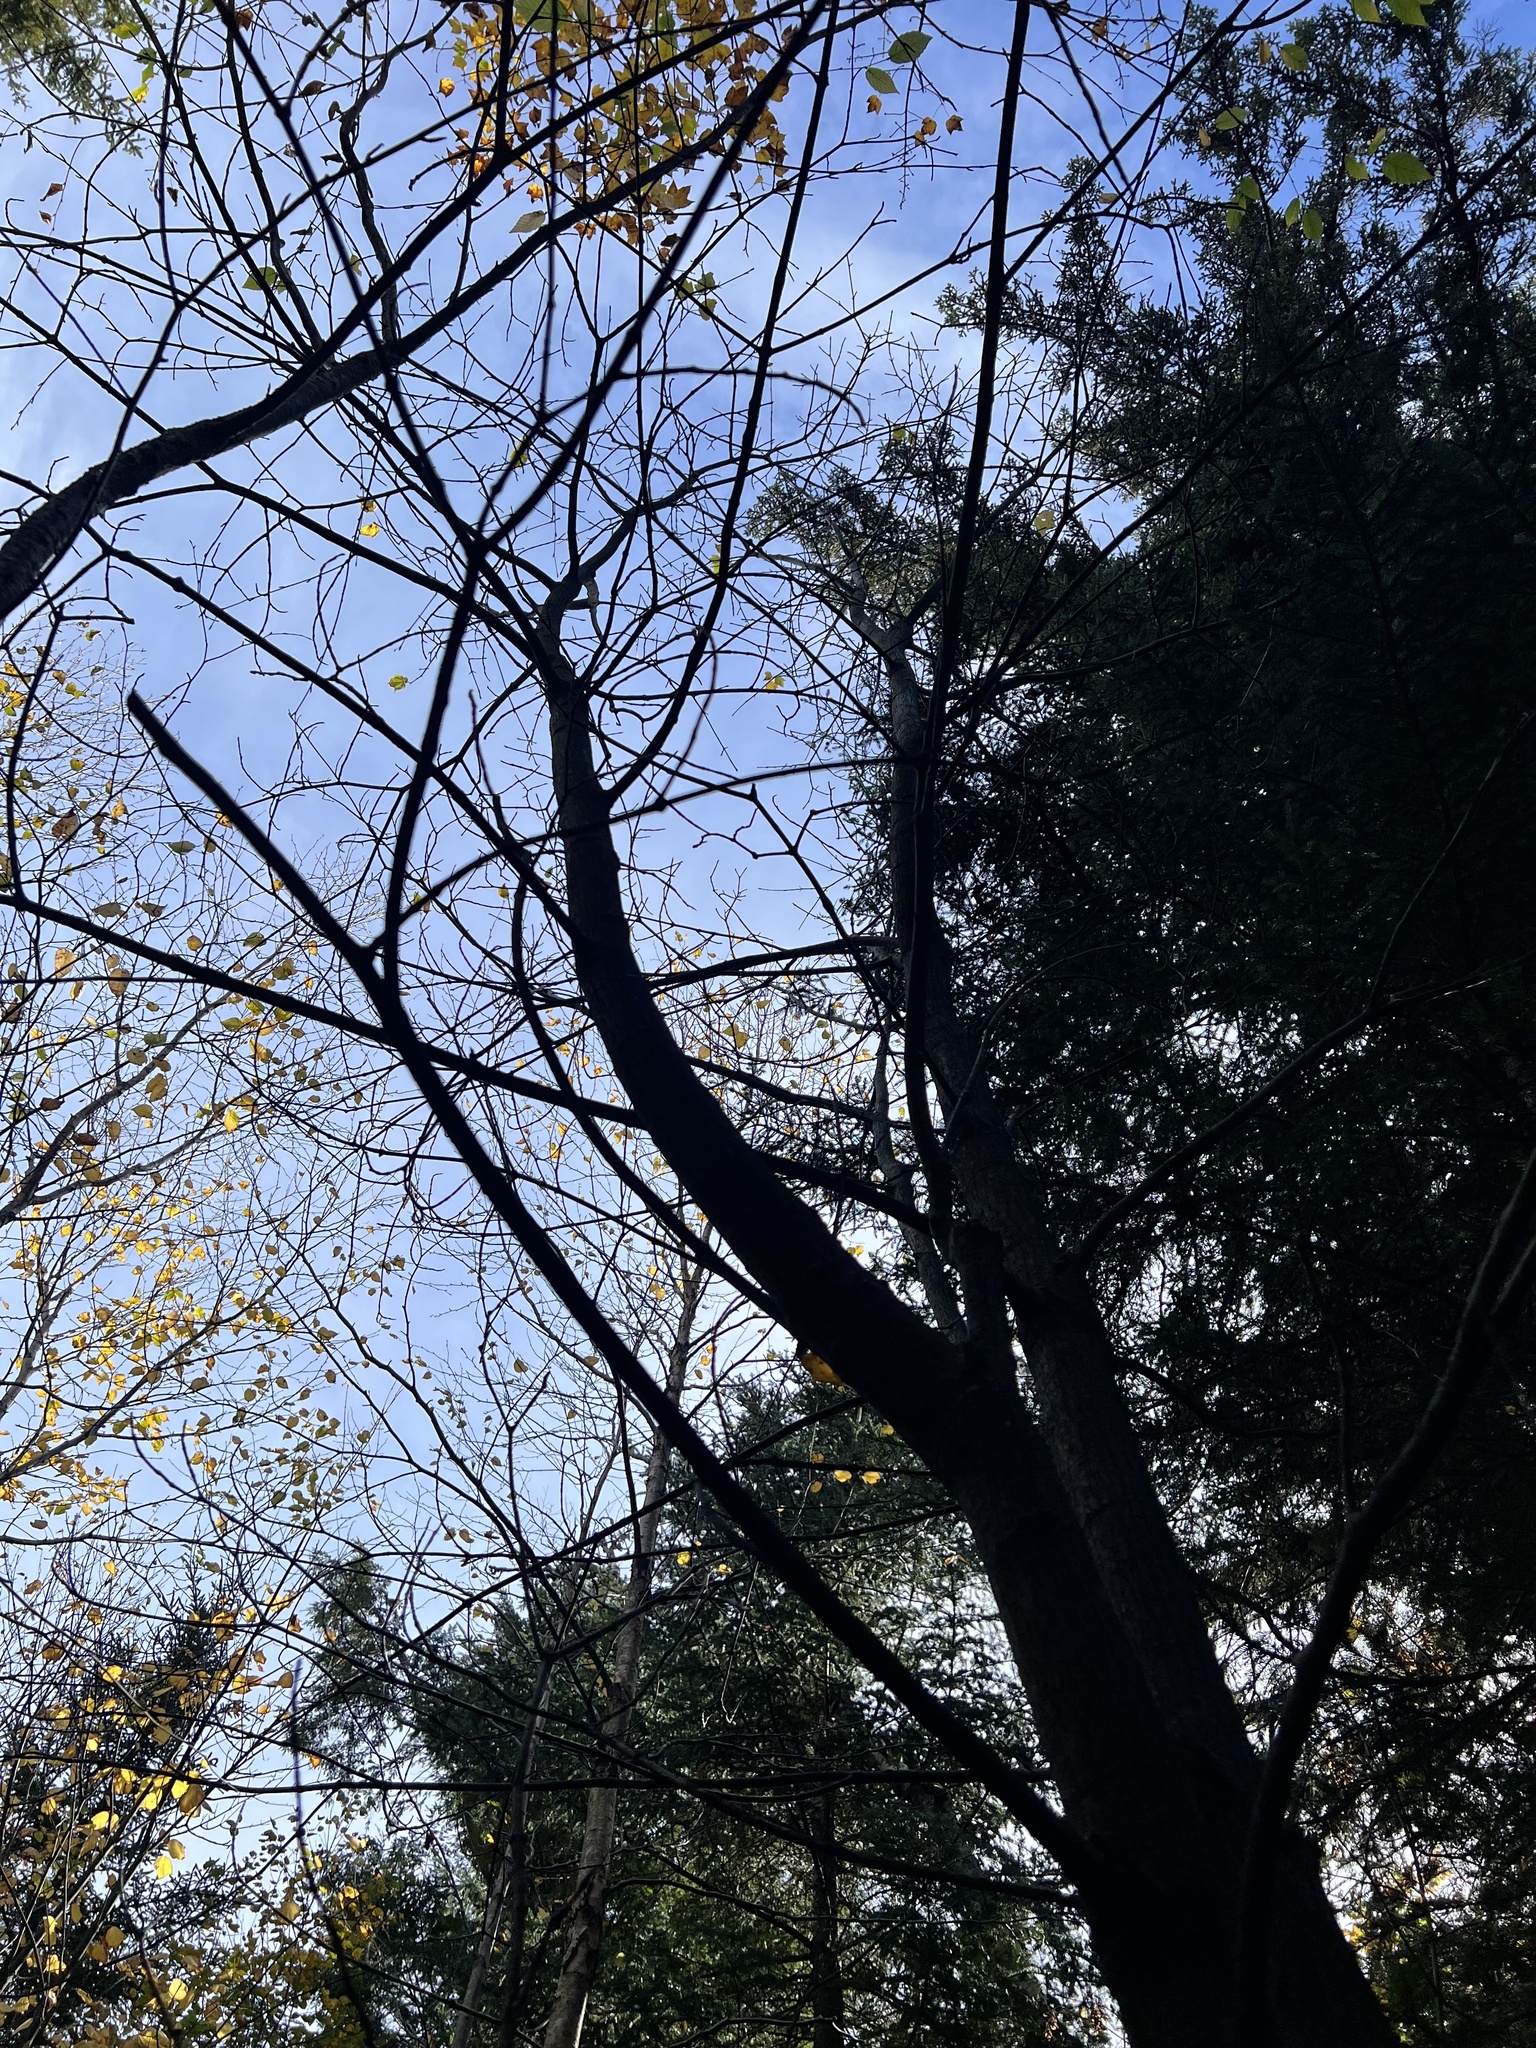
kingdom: Plantae
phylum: Tracheophyta
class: Magnoliopsida
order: Sapindales
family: Sapindaceae
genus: Acer
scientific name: Acer pensylvanicum
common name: Moosewood
